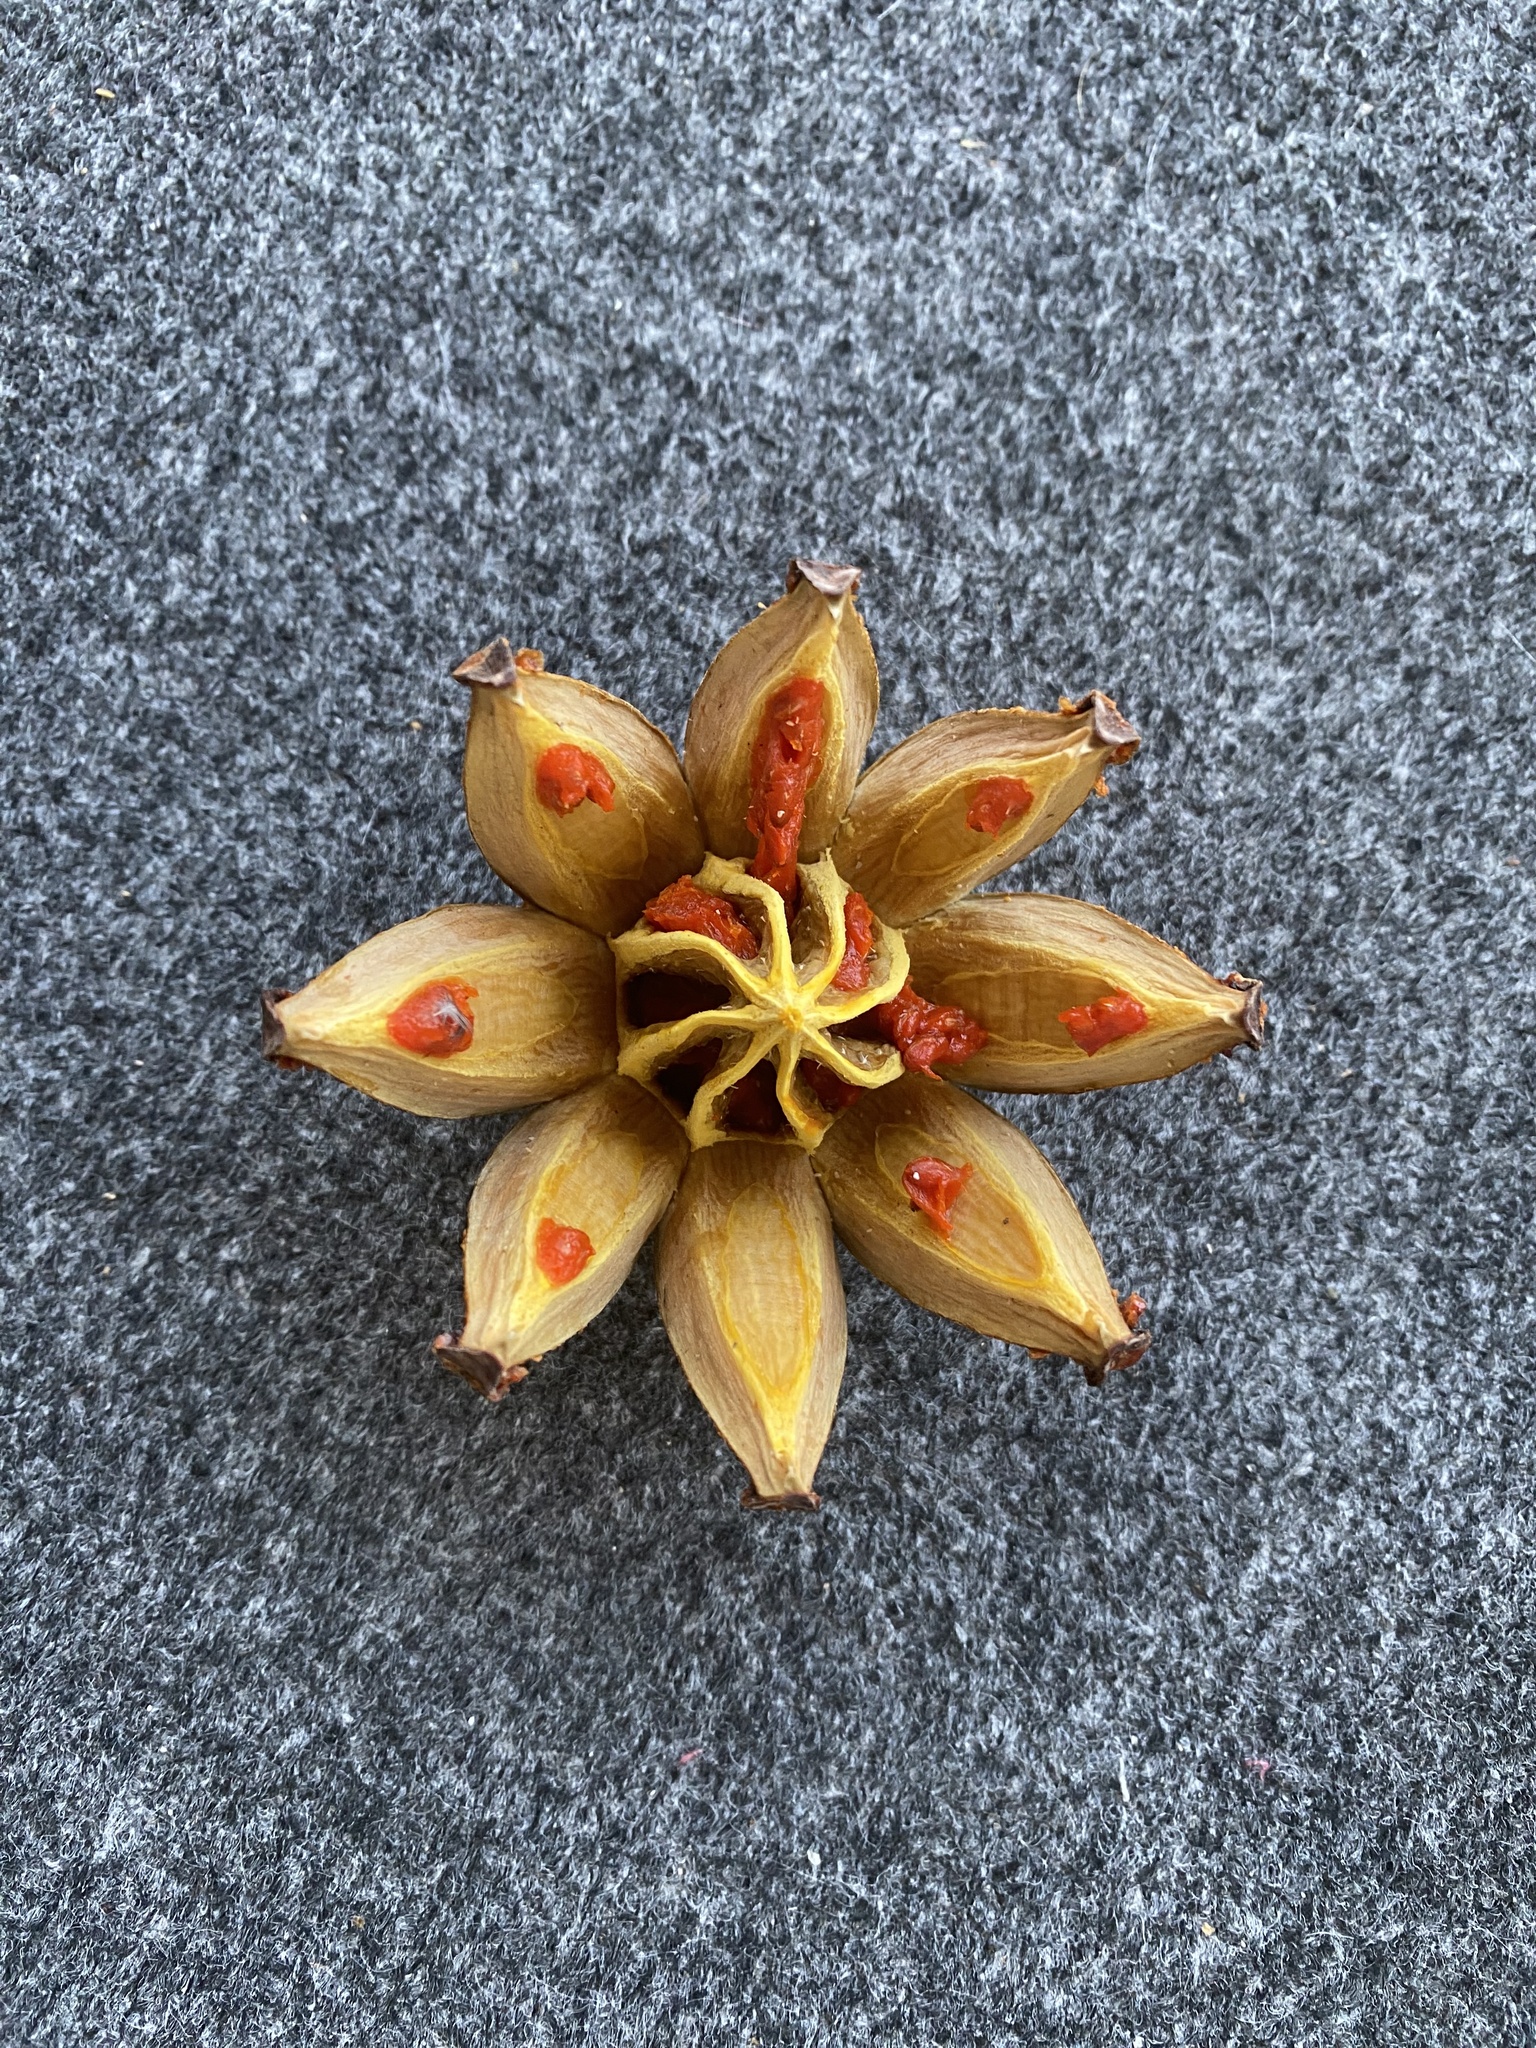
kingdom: Plantae
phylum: Tracheophyta
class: Magnoliopsida
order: Malpighiales
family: Clusiaceae
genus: Clusia
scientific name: Clusia rosea
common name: Scotch attorney
